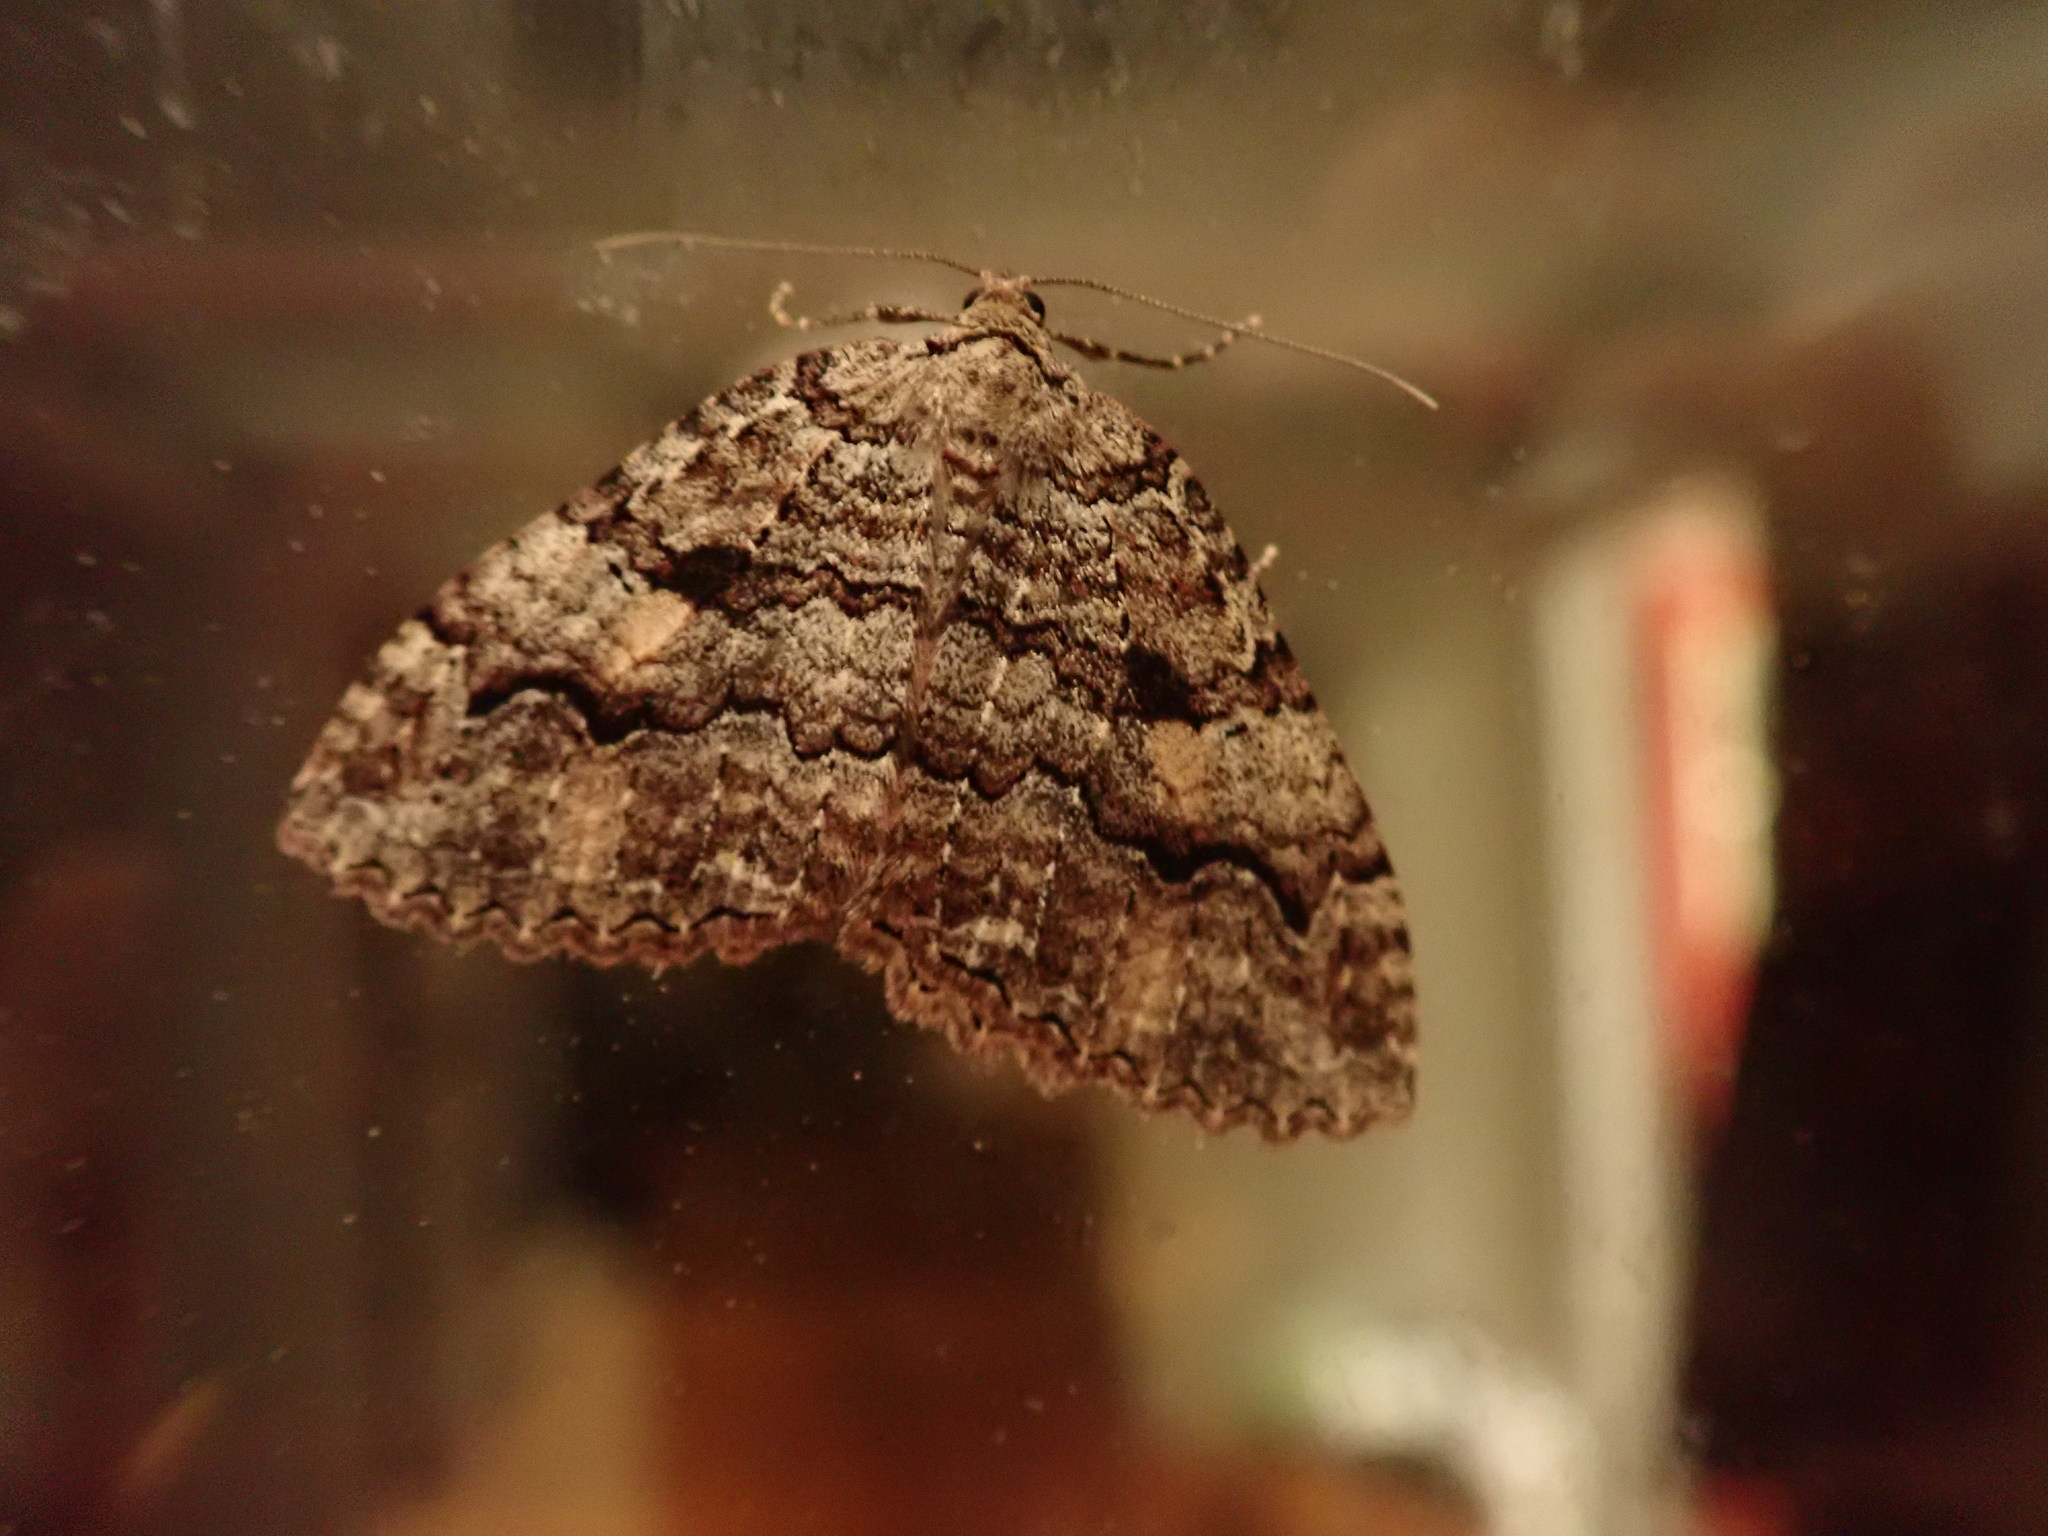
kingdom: Animalia
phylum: Arthropoda
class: Insecta
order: Lepidoptera
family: Geometridae
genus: Triphosa
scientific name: Triphosa haesitata
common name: Tissue moth
